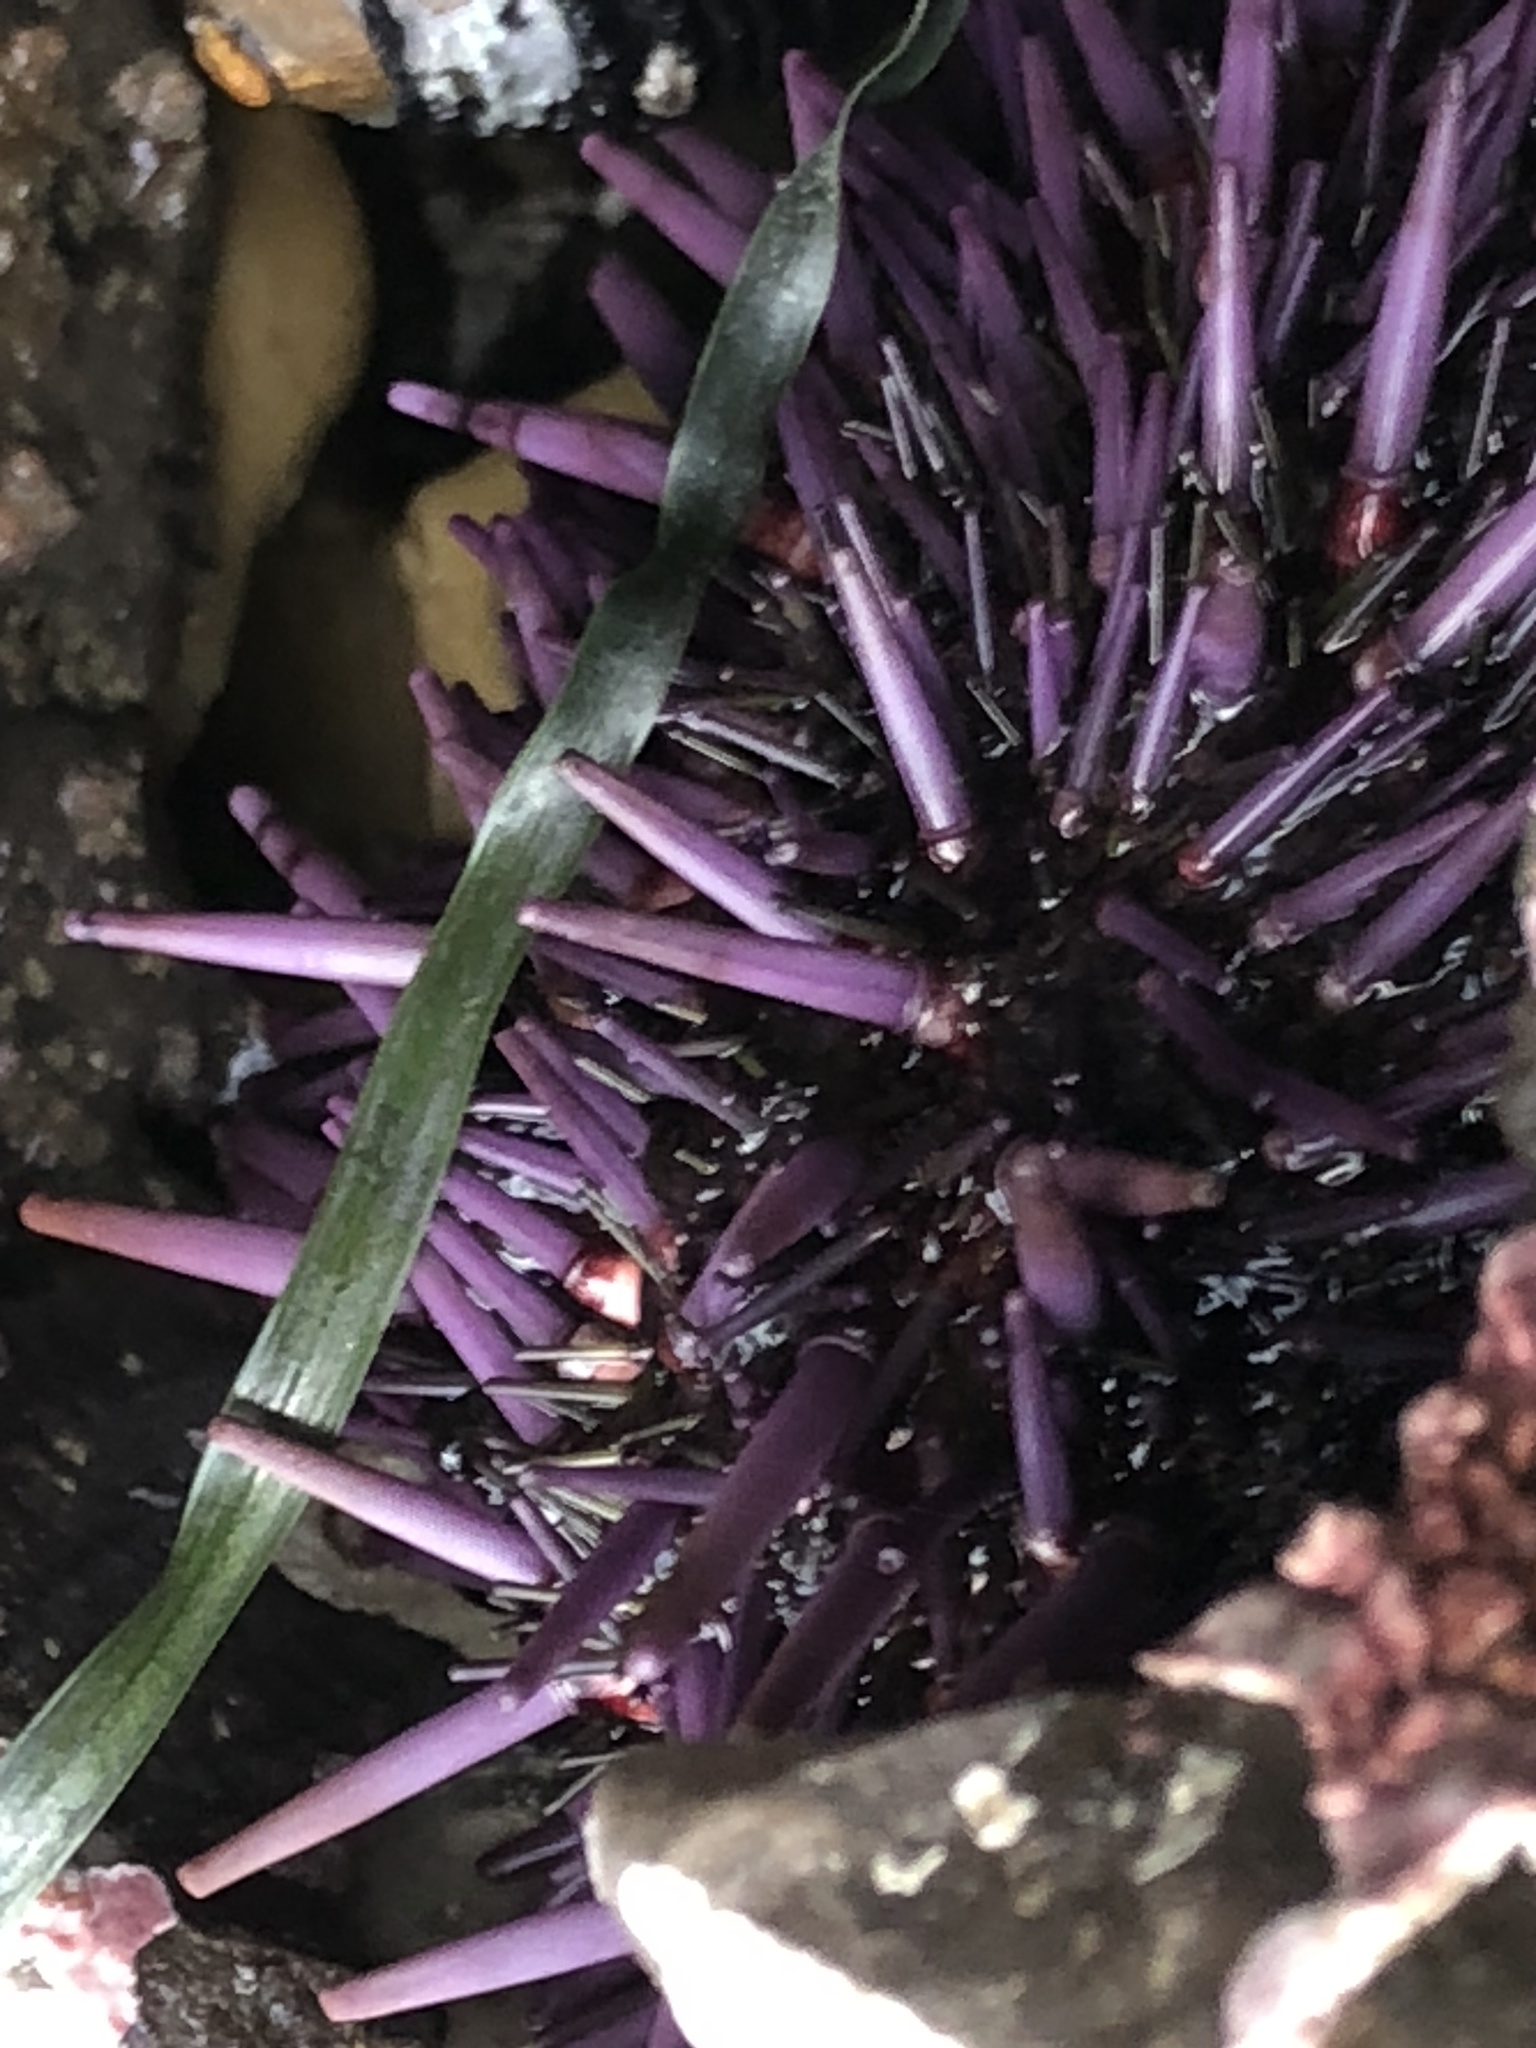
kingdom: Animalia
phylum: Echinodermata
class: Echinoidea
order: Camarodonta
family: Strongylocentrotidae
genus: Strongylocentrotus
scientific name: Strongylocentrotus purpuratus
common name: Purple sea urchin
